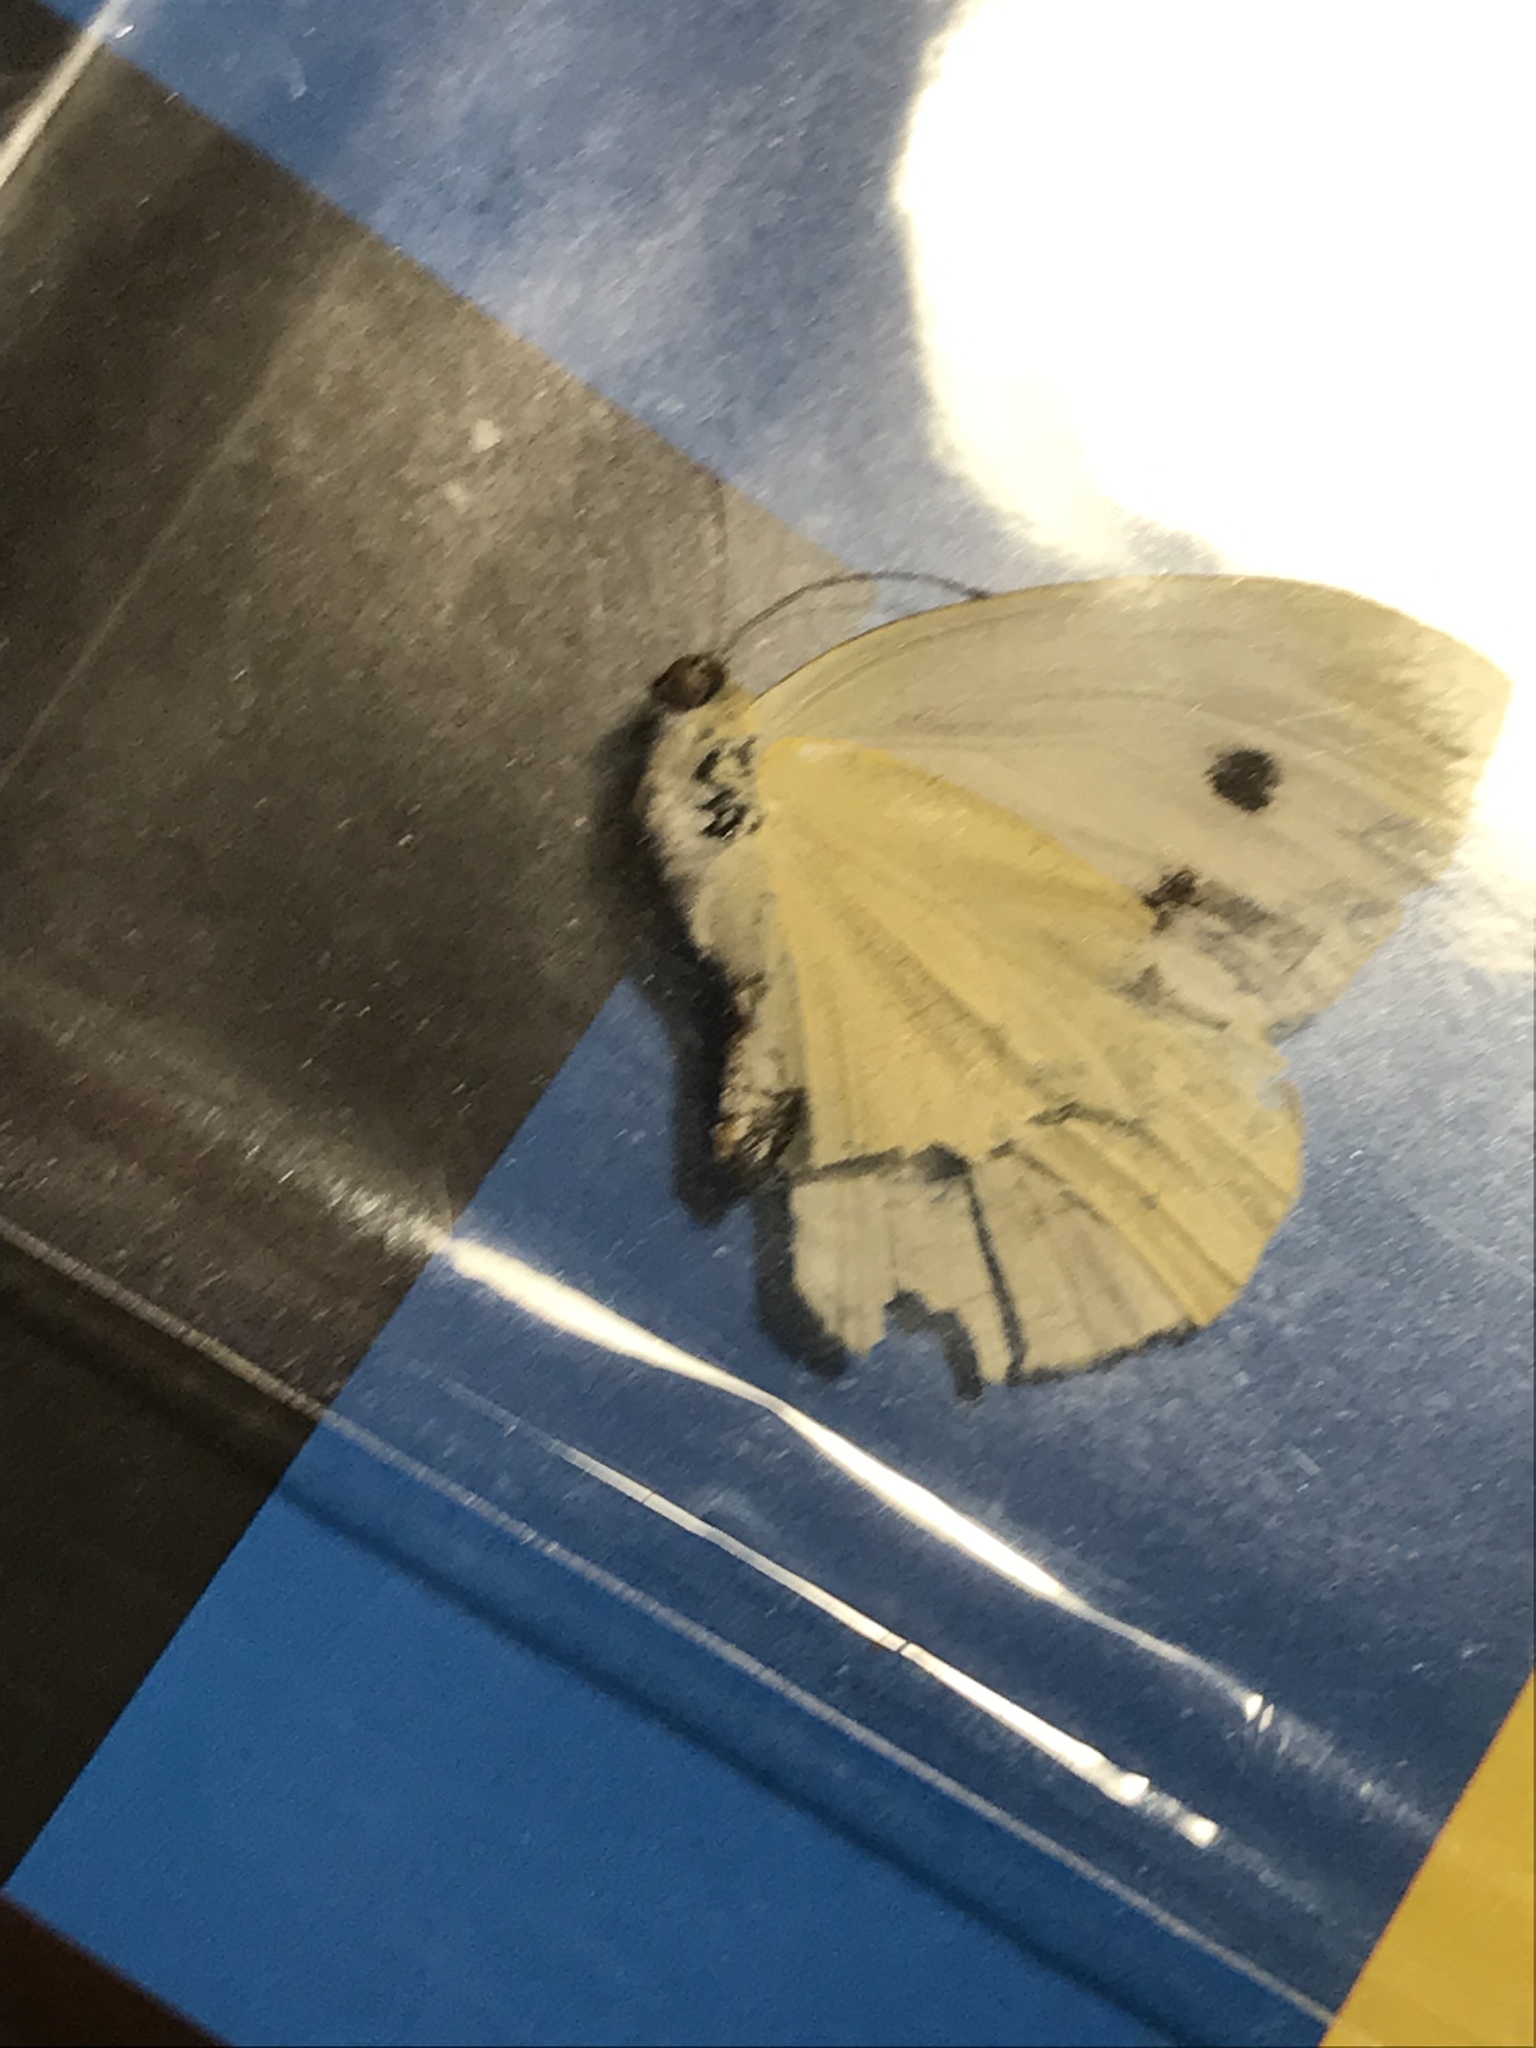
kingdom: Animalia
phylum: Arthropoda
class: Insecta
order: Lepidoptera
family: Pieridae
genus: Pieris
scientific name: Pieris rapae
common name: Small white
